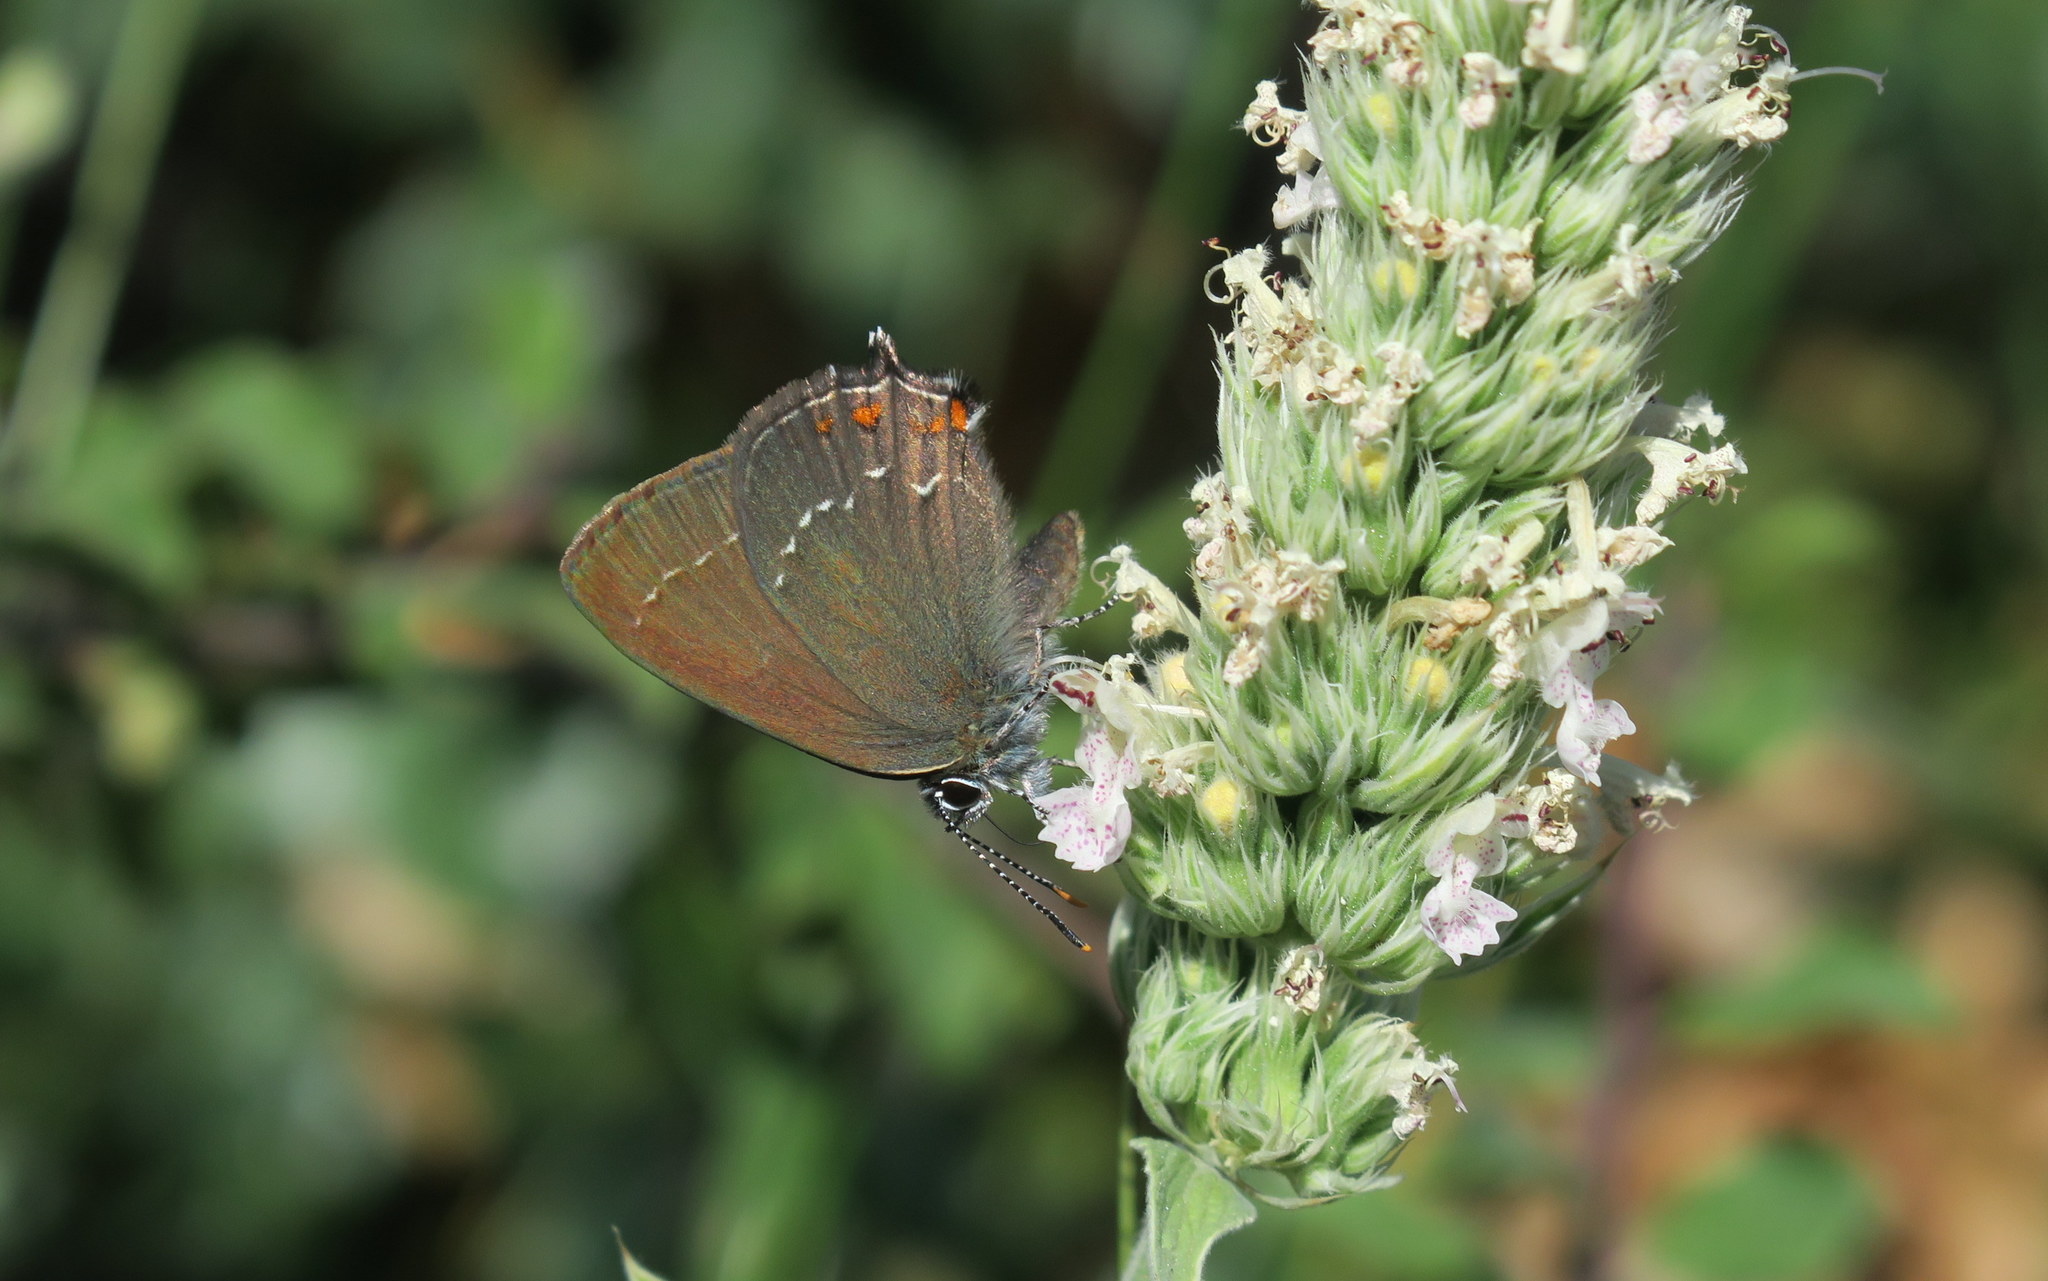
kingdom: Animalia
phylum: Arthropoda
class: Insecta
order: Lepidoptera
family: Lycaenidae
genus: Nordmannia
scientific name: Nordmannia ilicis
